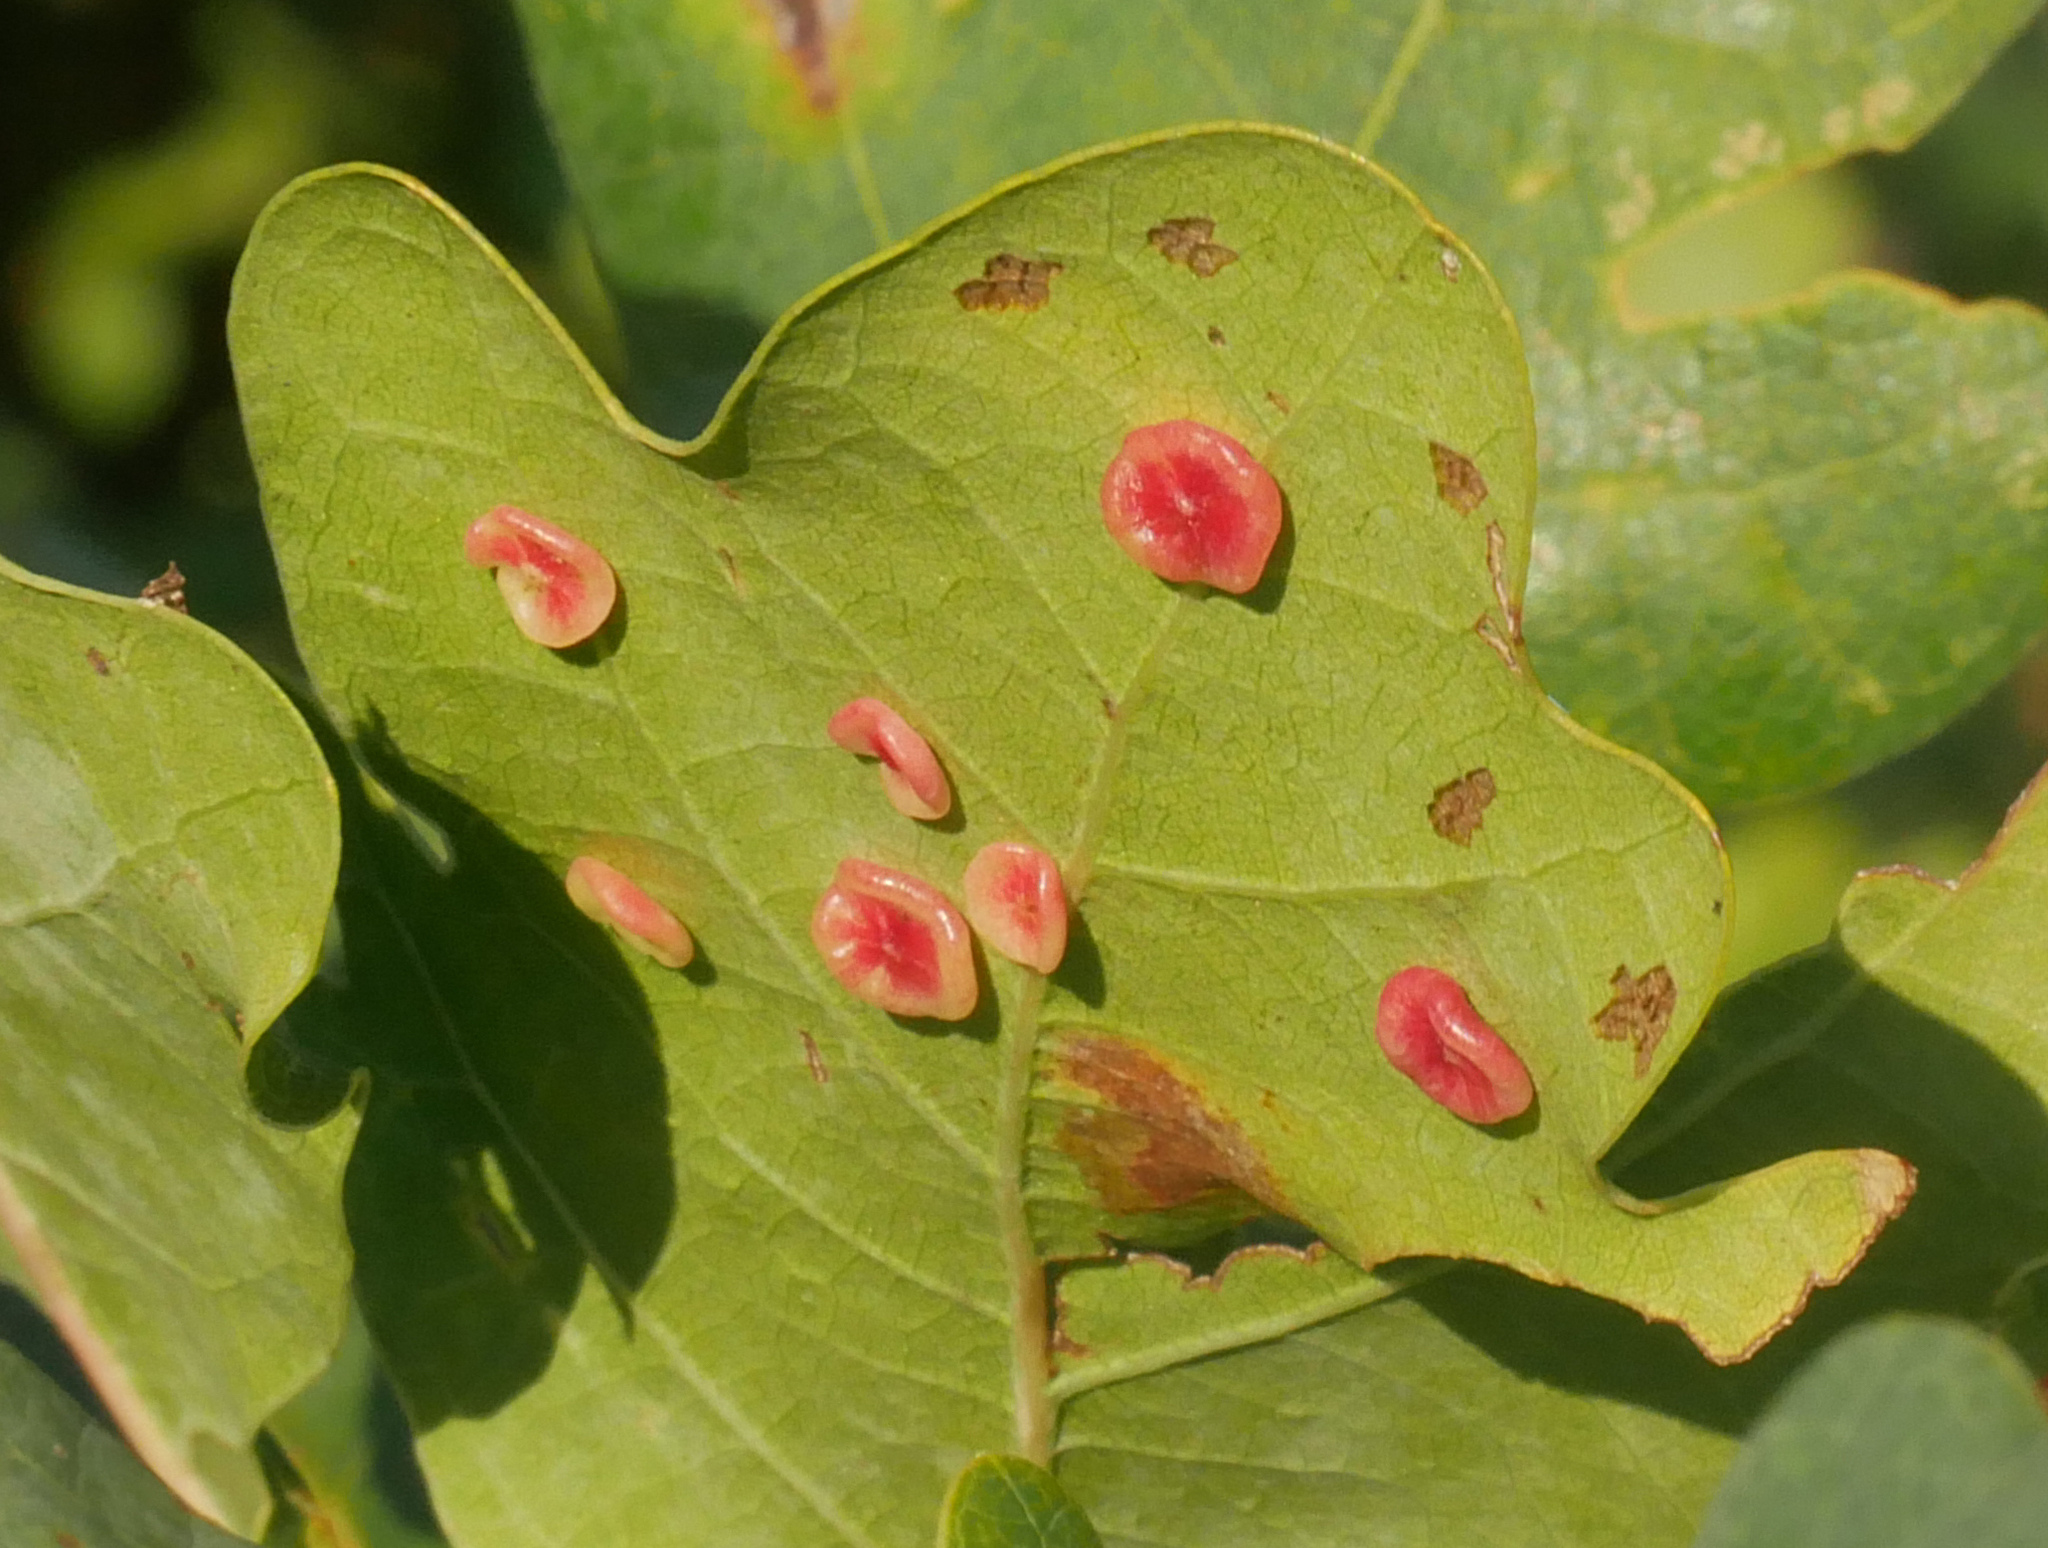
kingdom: Animalia
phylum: Arthropoda
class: Insecta
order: Hymenoptera
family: Cynipidae
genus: Neuroterus
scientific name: Neuroterus albipes
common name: Smooth spangle gall
